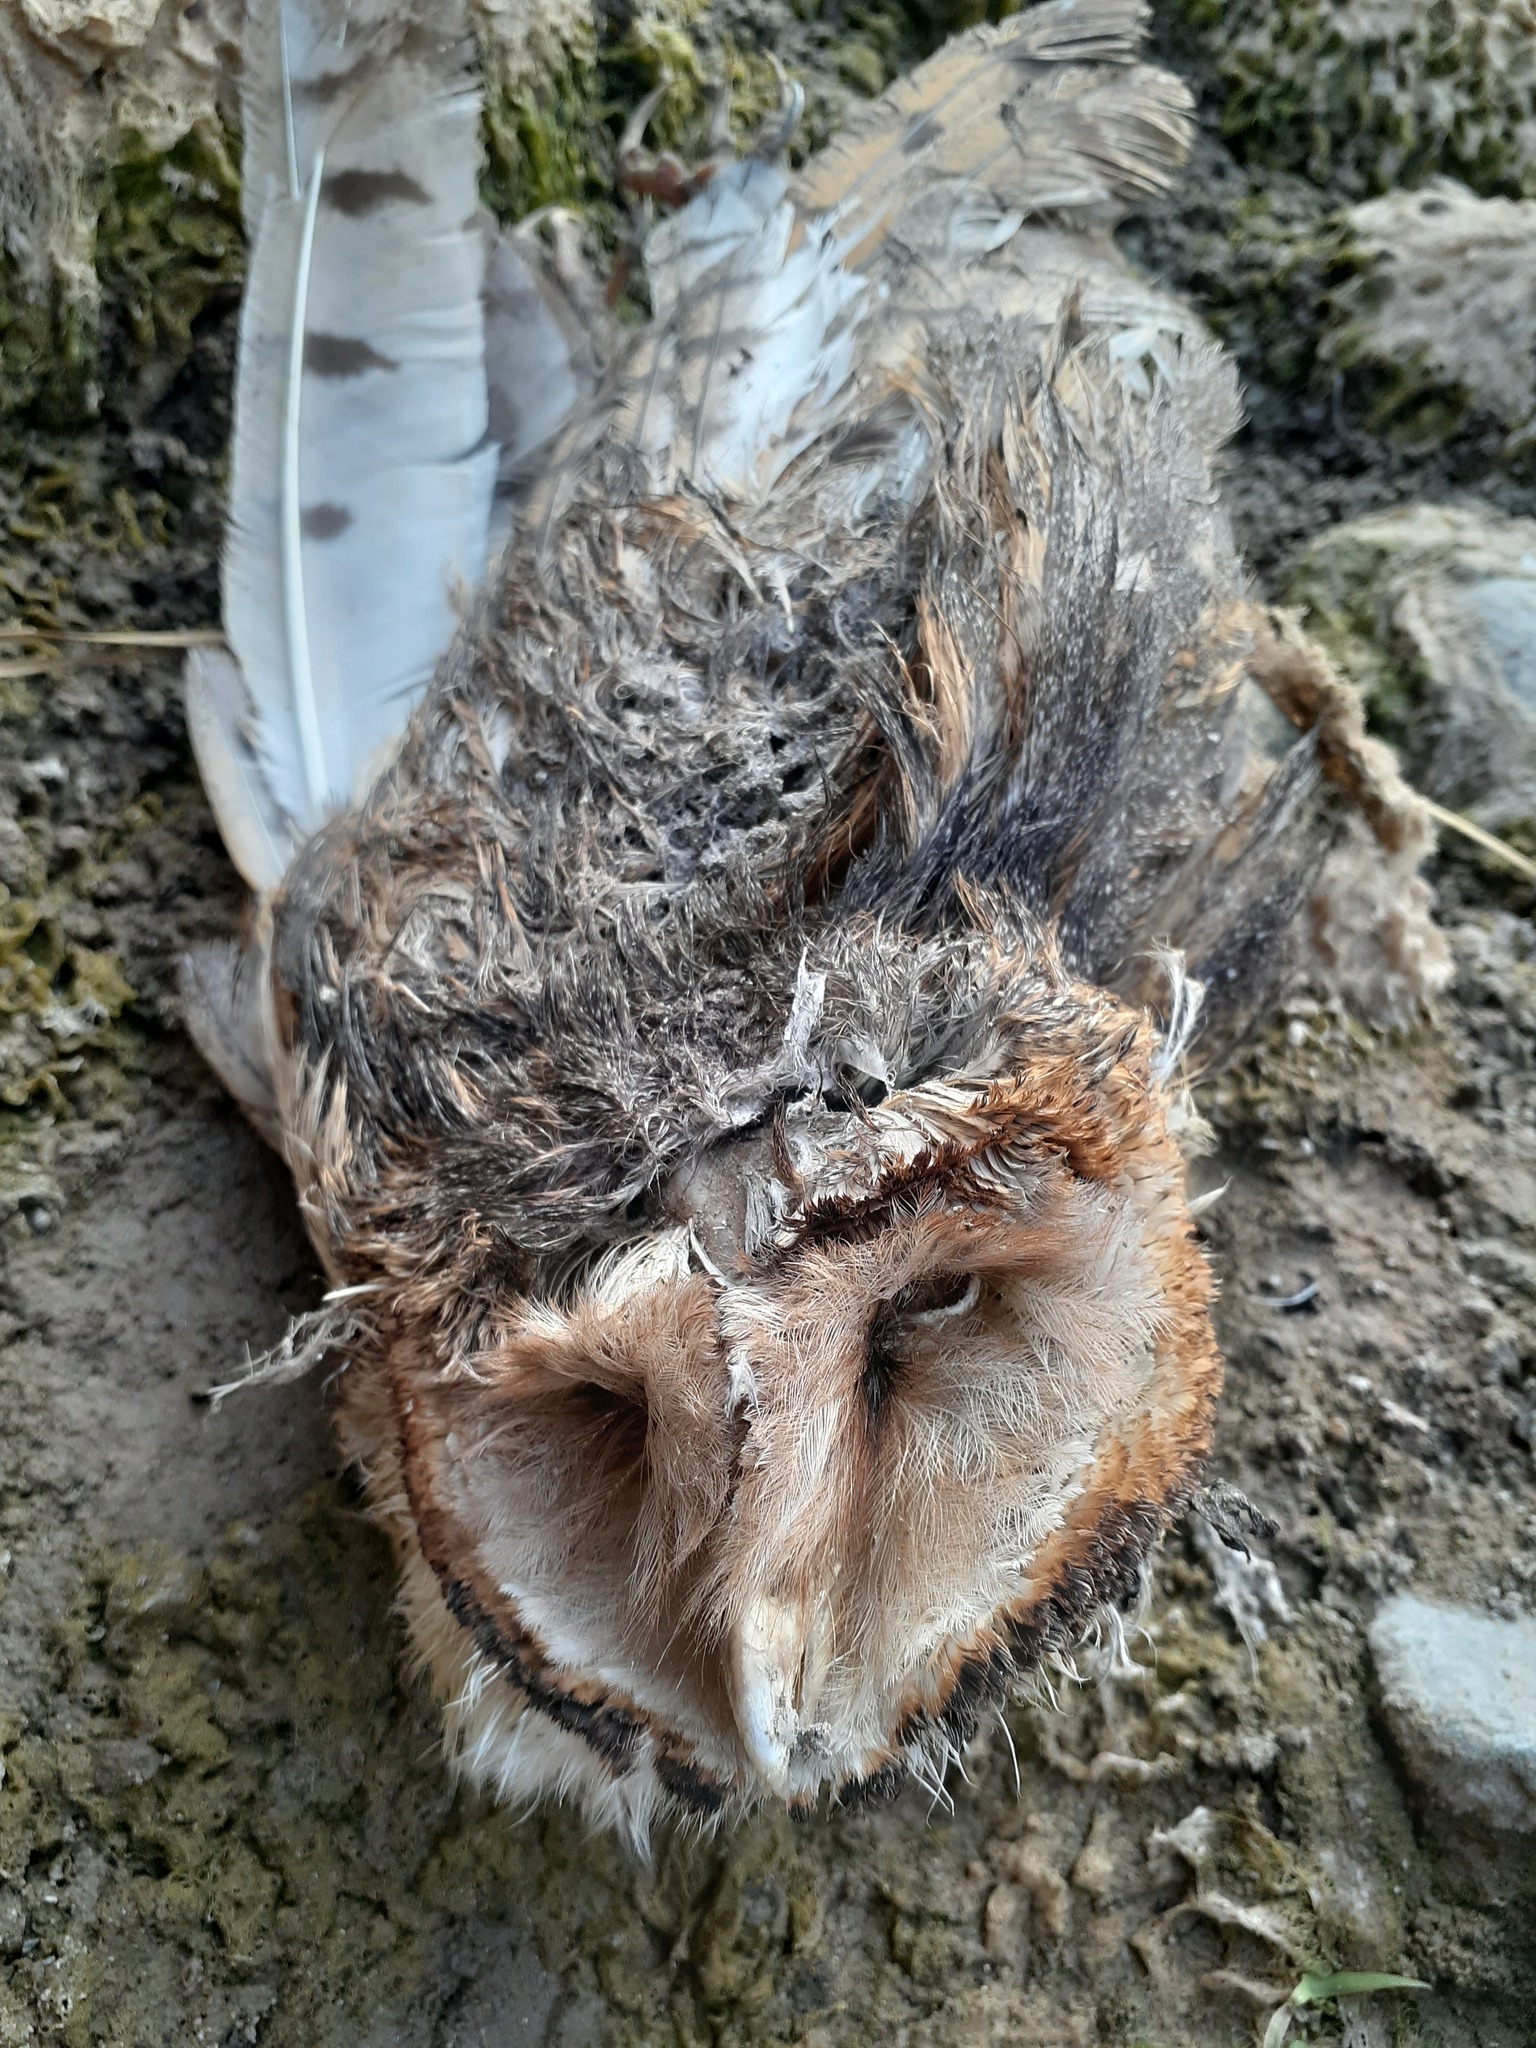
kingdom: Animalia
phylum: Chordata
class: Aves
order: Strigiformes
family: Tytonidae
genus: Tyto
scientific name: Tyto alba
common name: Barn owl
